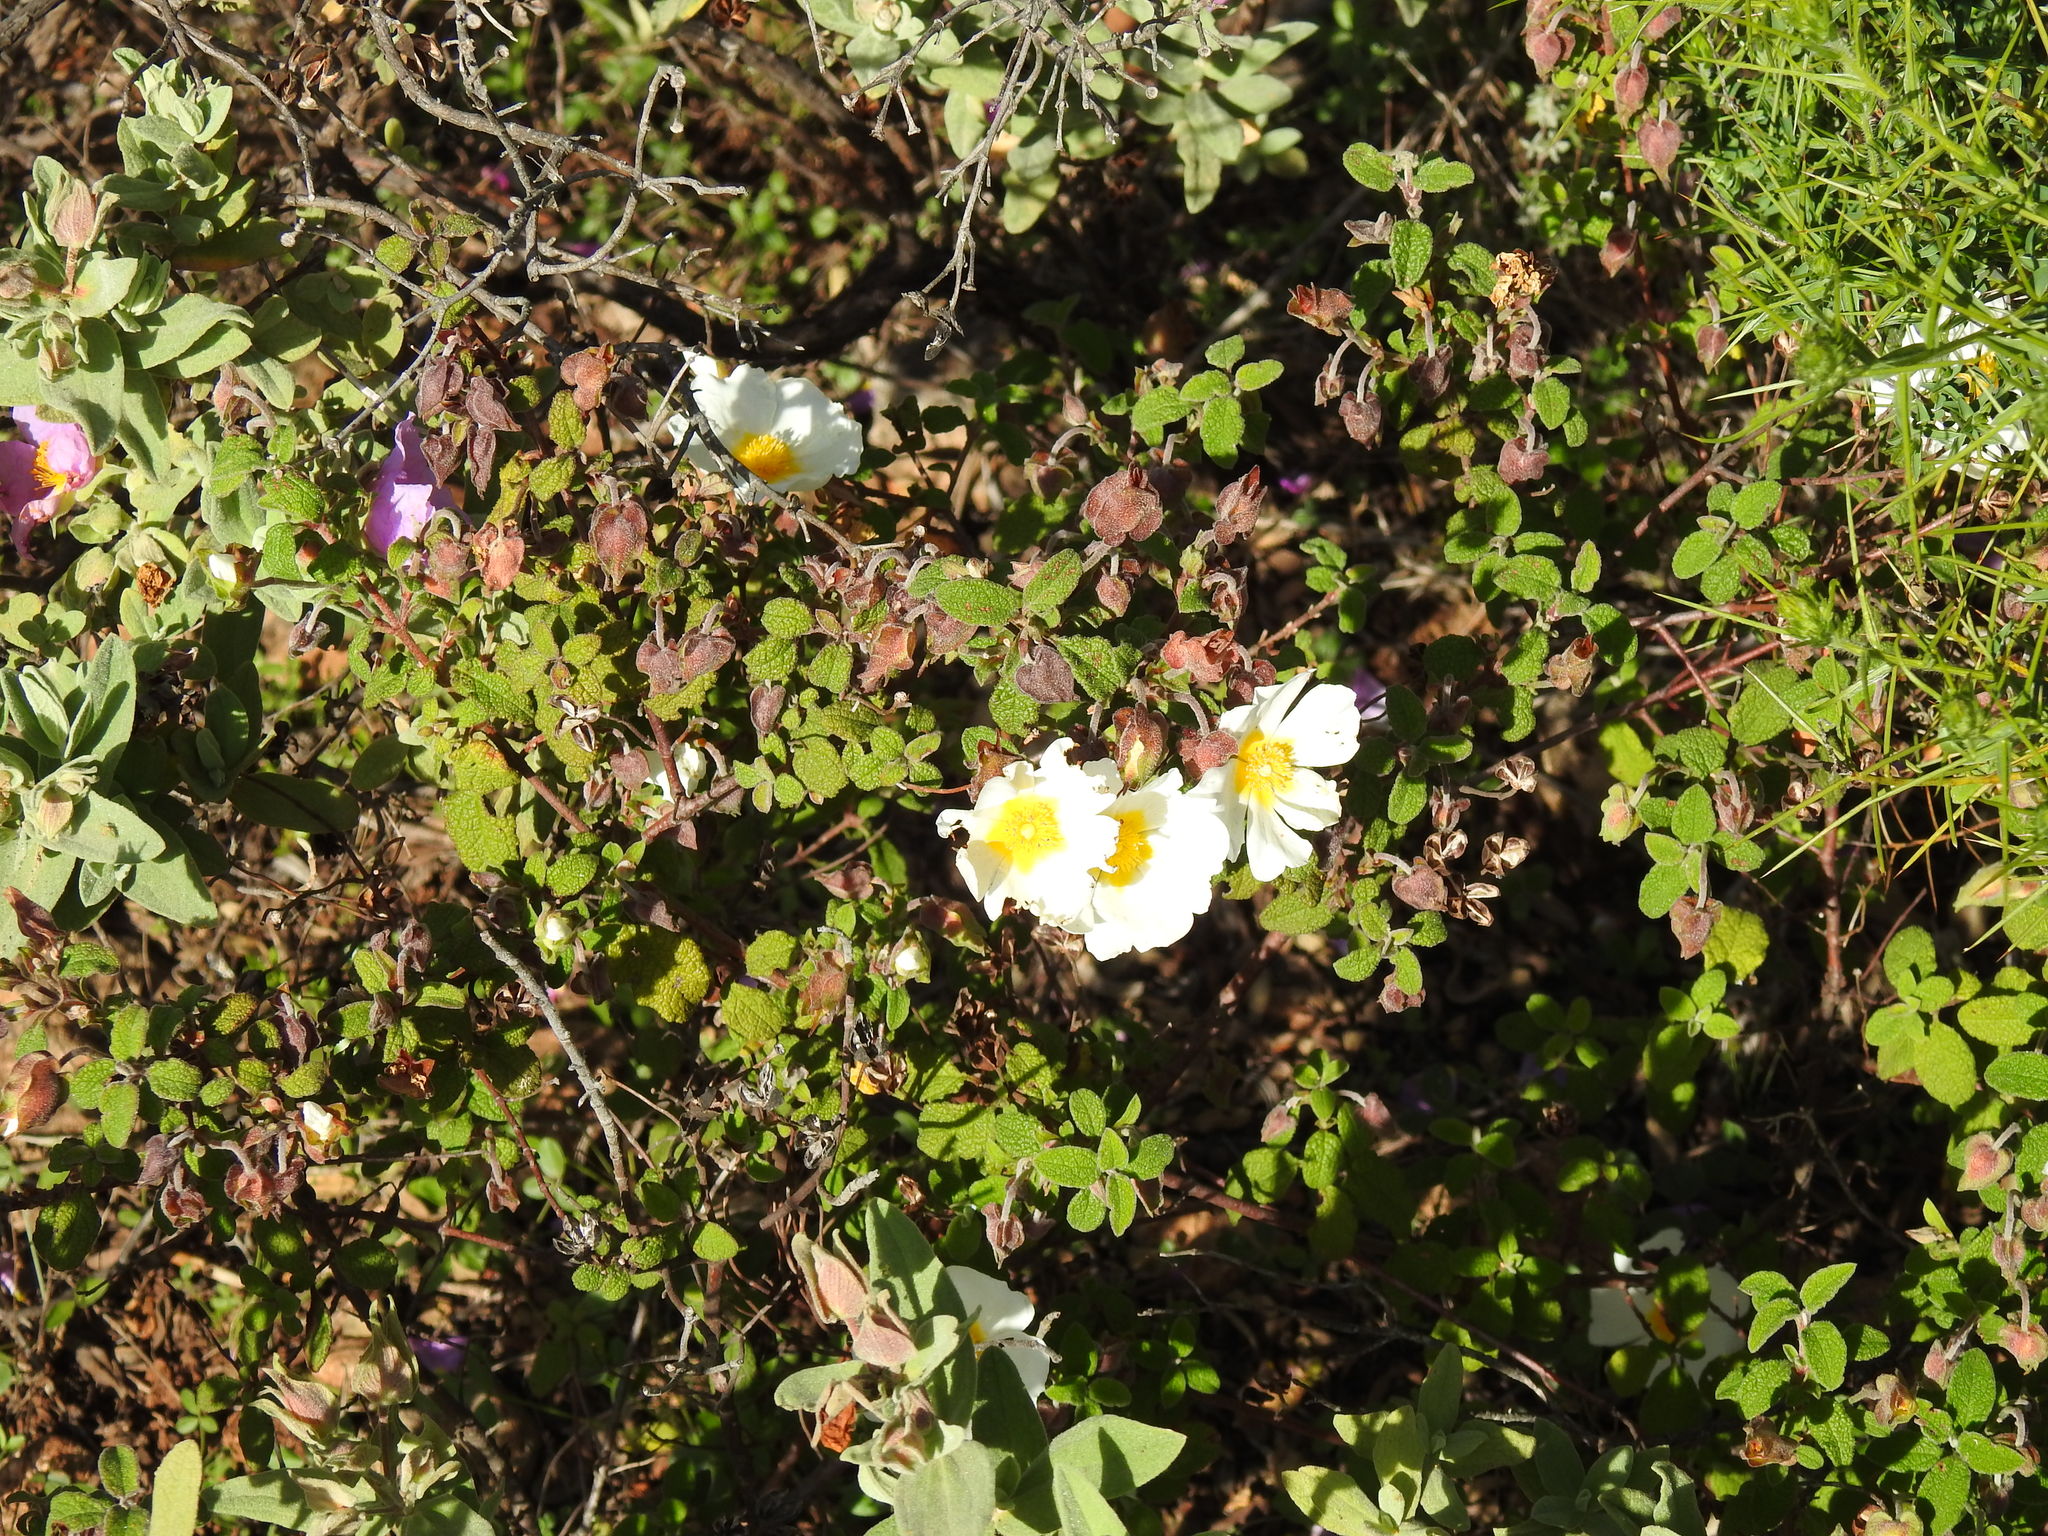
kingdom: Plantae
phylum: Tracheophyta
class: Magnoliopsida
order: Malvales
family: Cistaceae
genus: Cistus
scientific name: Cistus salviifolius
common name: Salvia cistus
